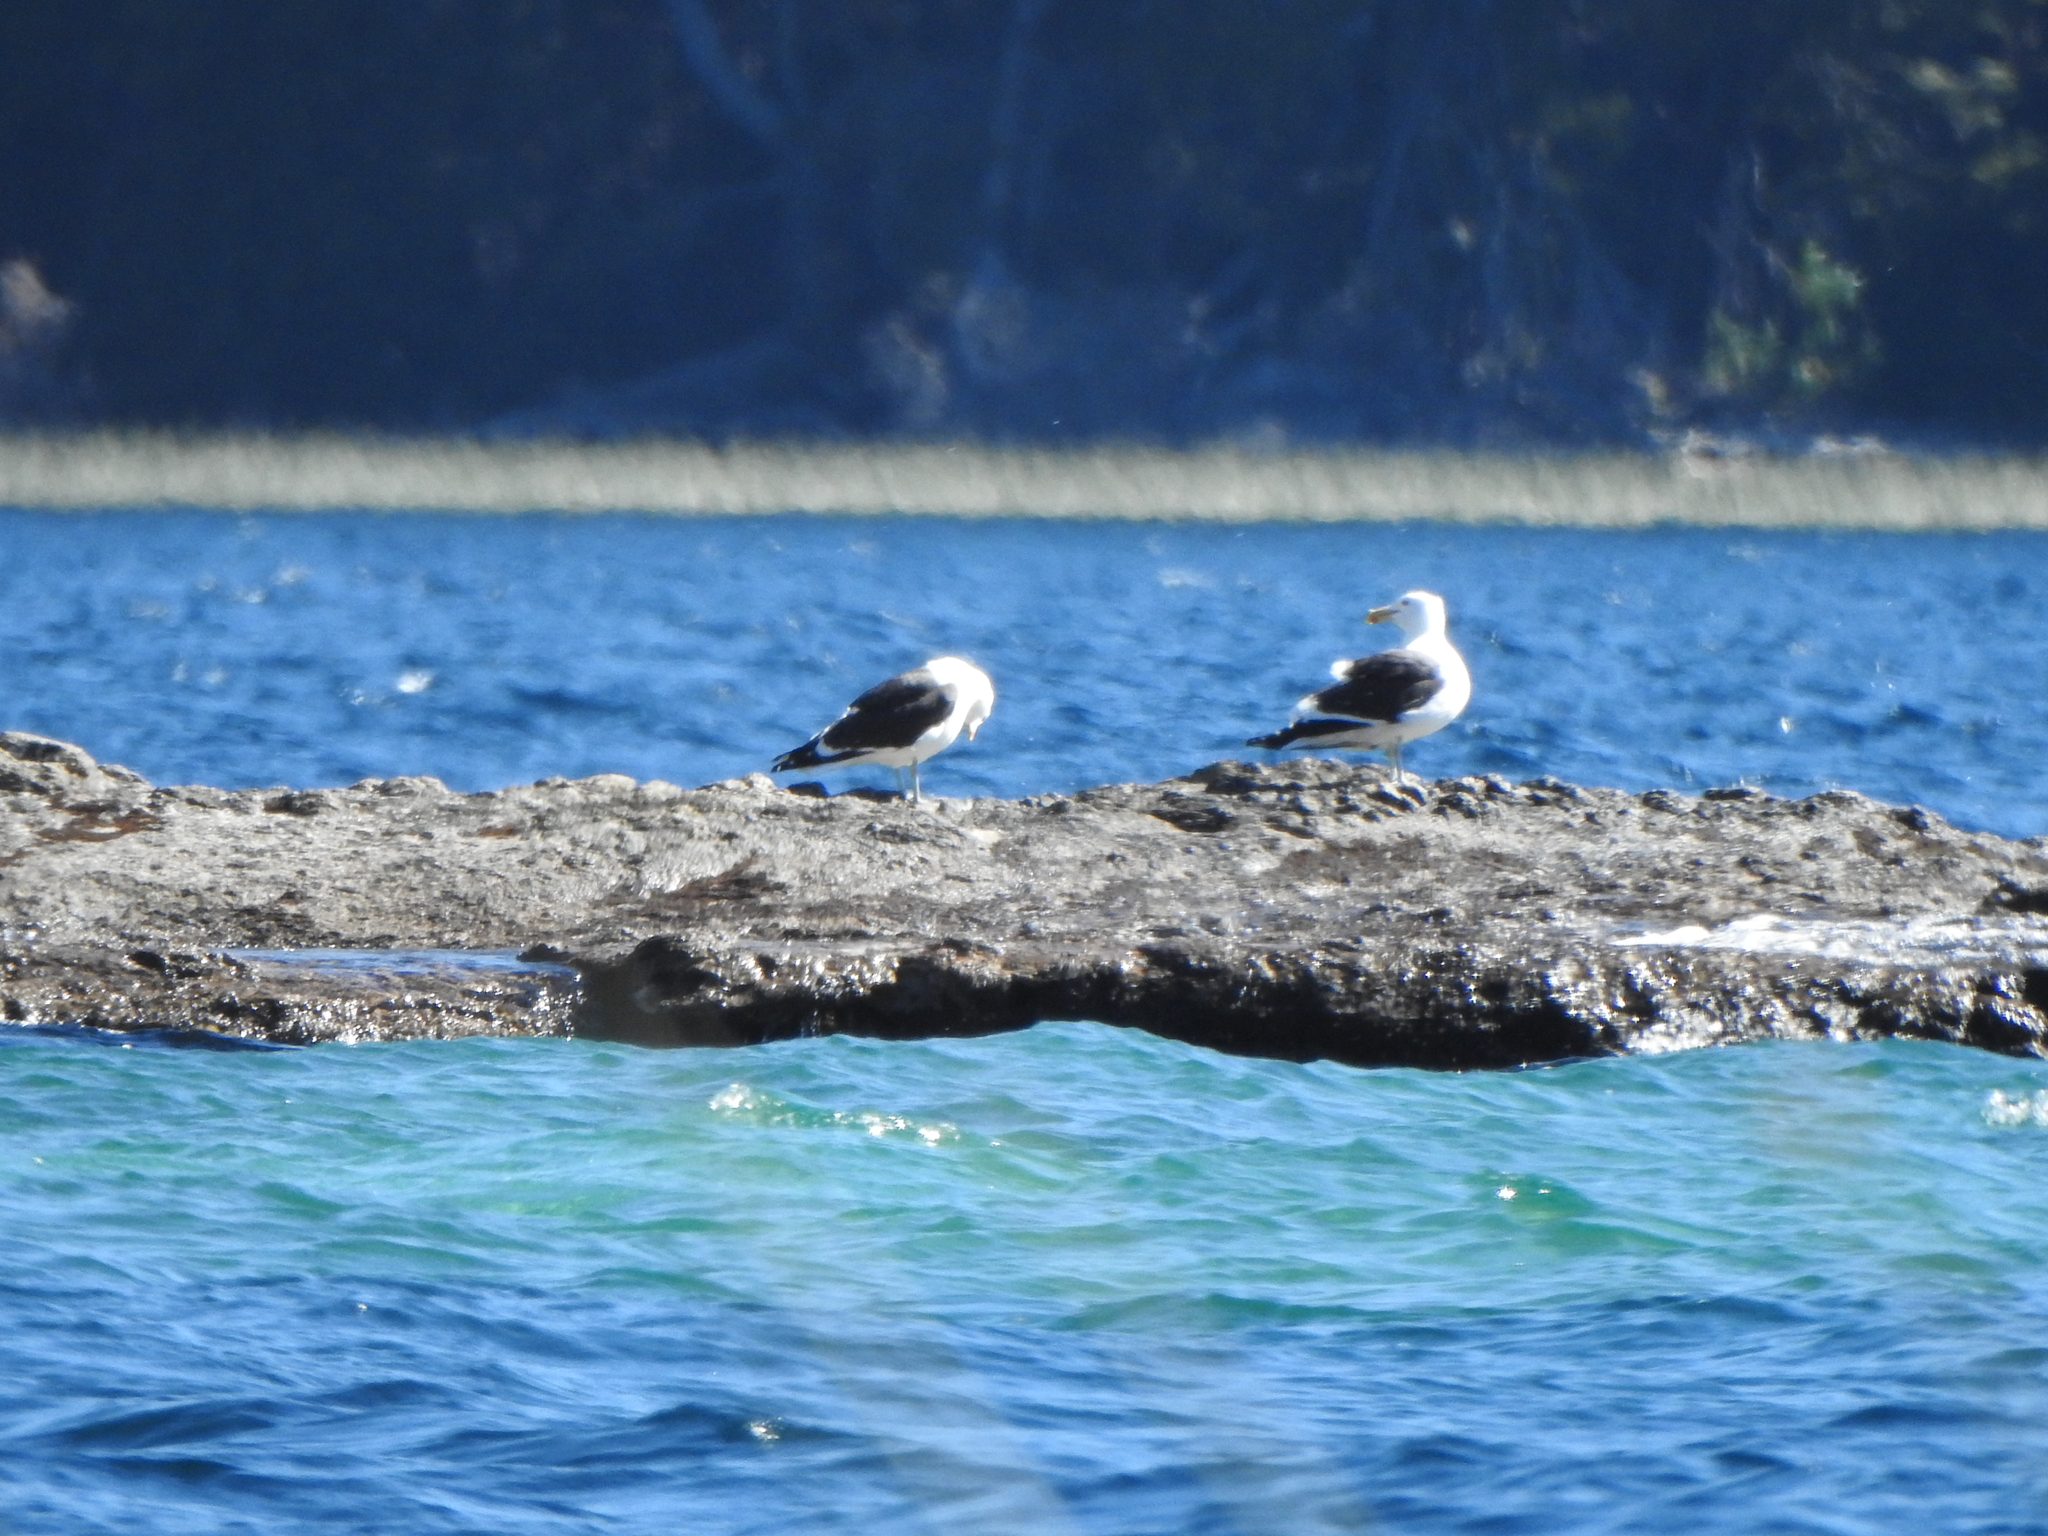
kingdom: Animalia
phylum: Chordata
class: Aves
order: Charadriiformes
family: Laridae
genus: Larus
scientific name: Larus dominicanus
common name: Kelp gull
